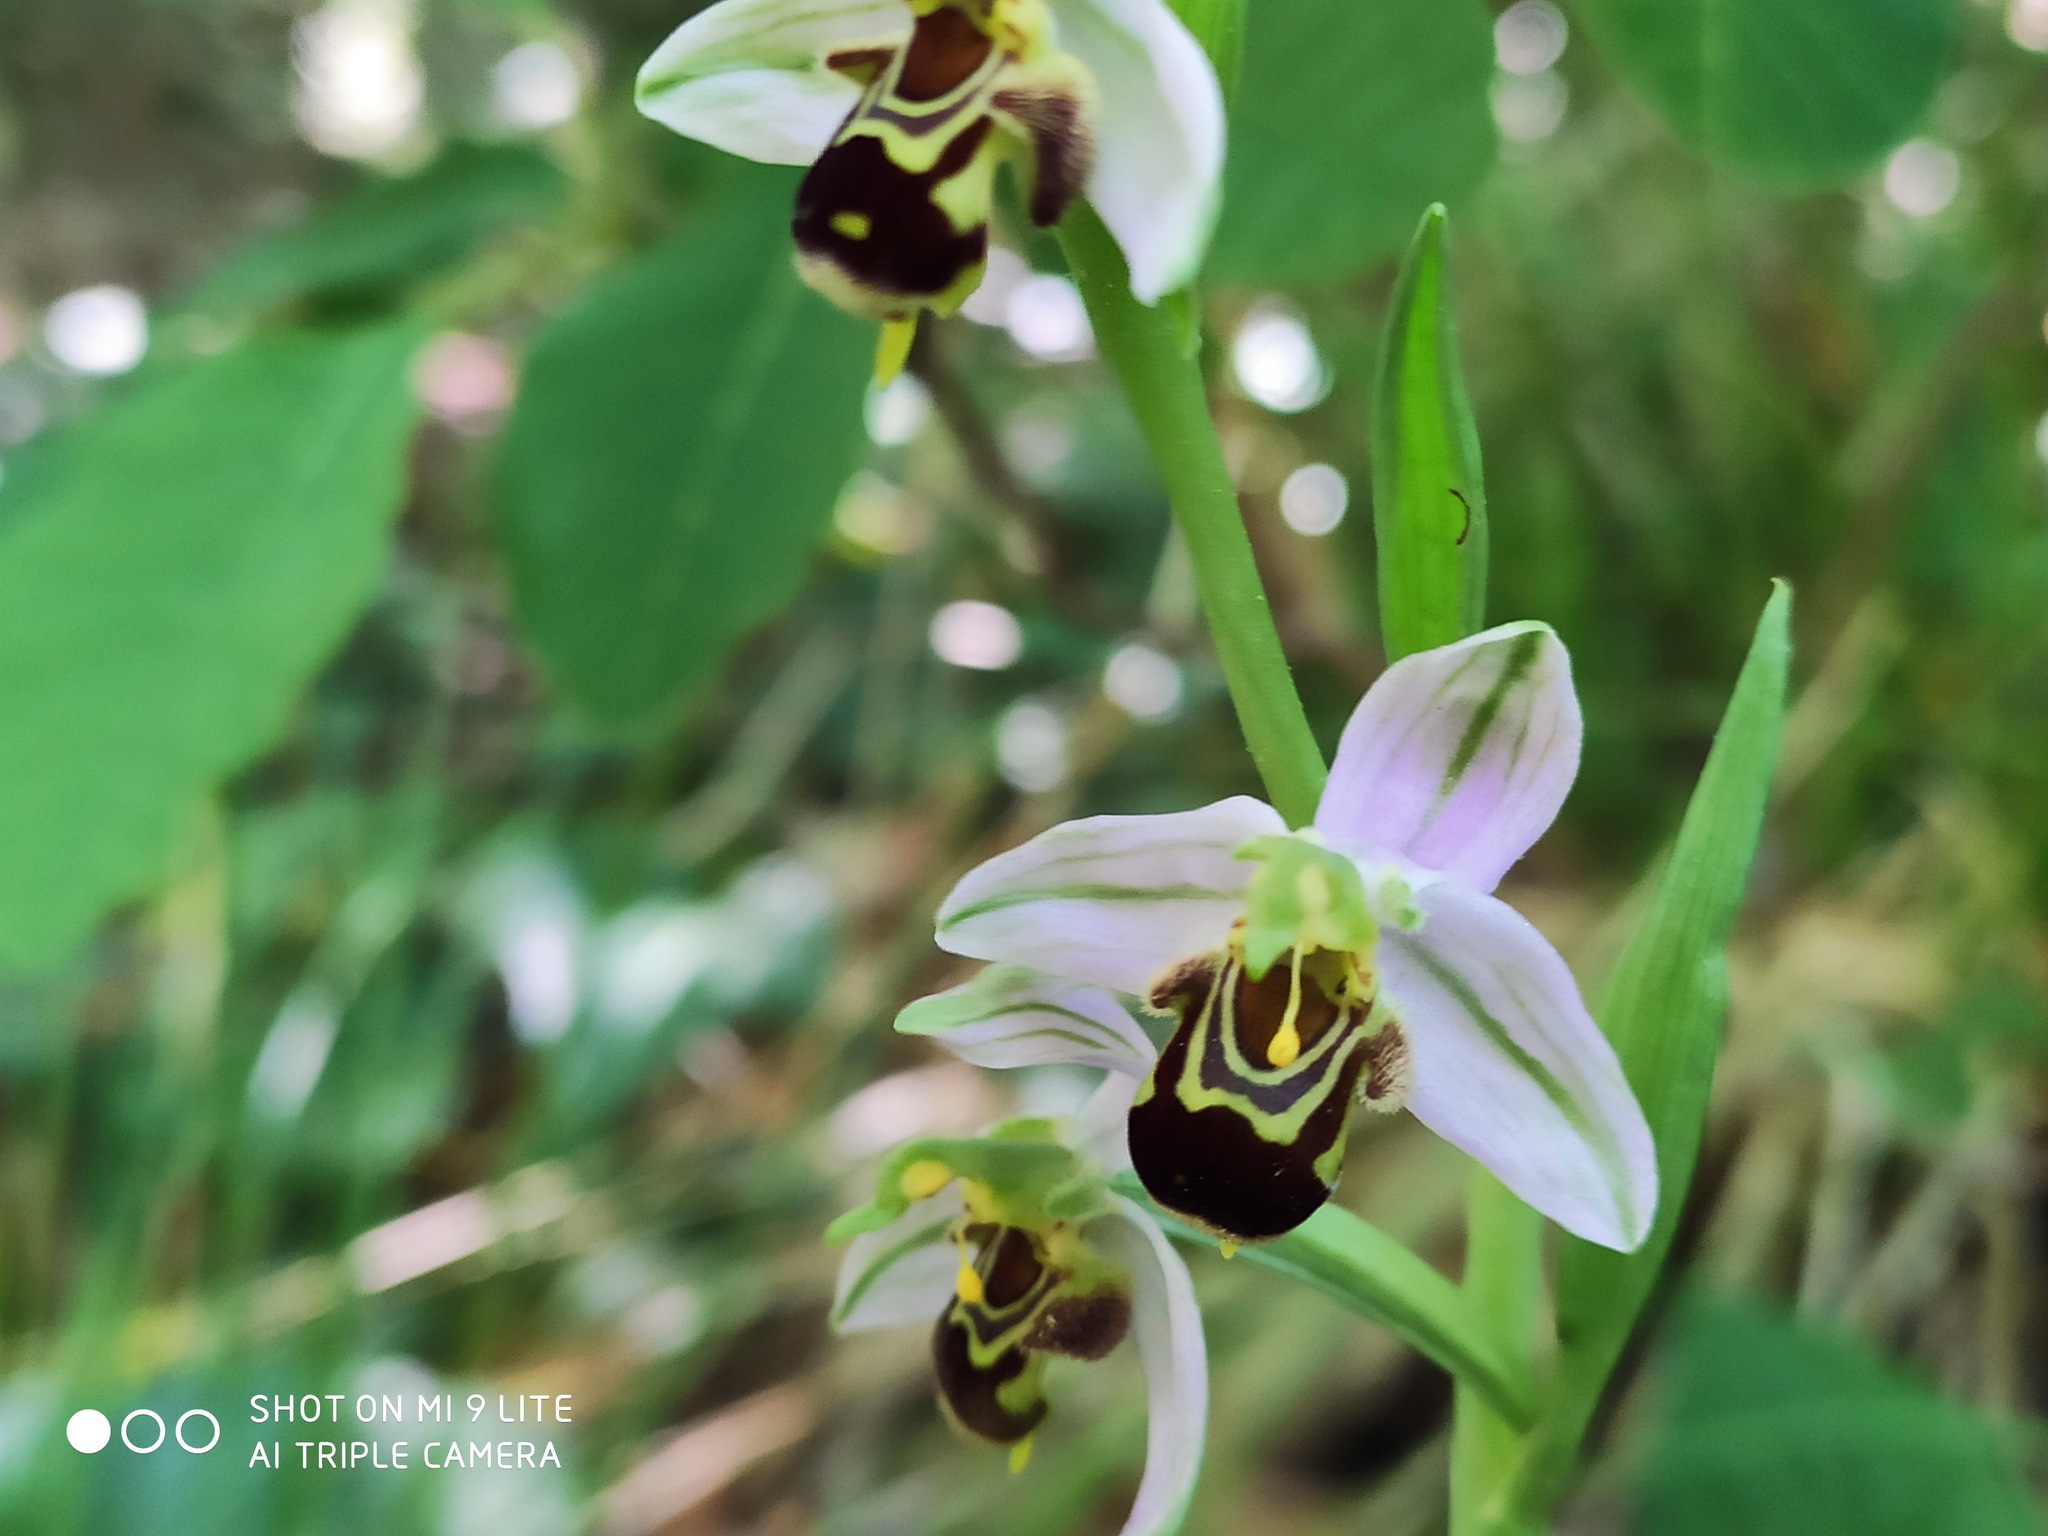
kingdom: Plantae
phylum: Tracheophyta
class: Liliopsida
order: Asparagales
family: Orchidaceae
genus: Ophrys
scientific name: Ophrys apifera
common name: Bee orchid
